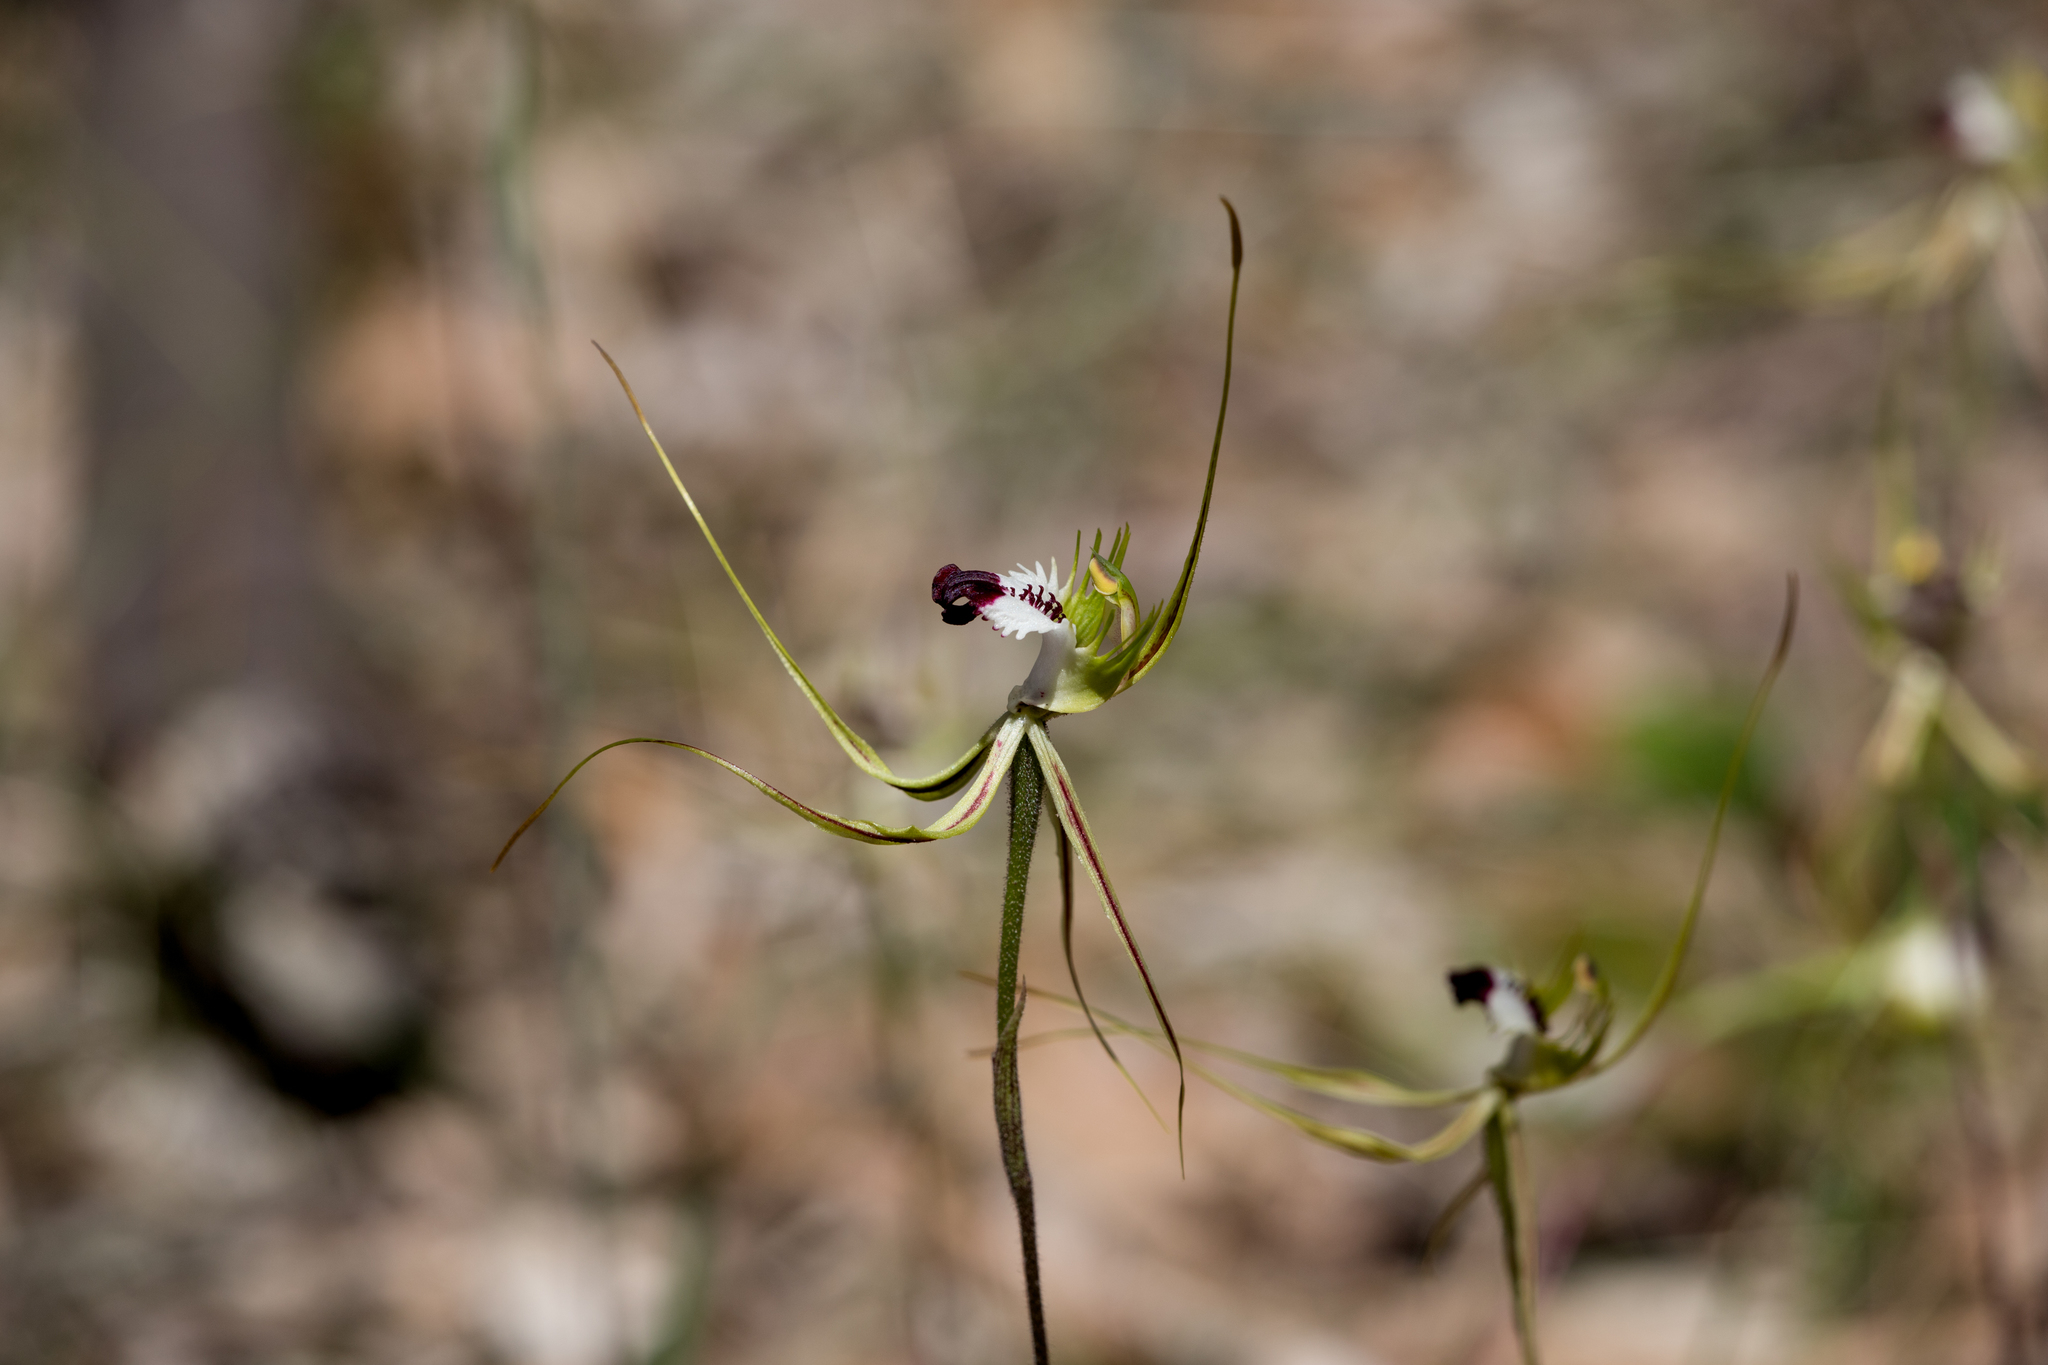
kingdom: Plantae
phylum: Tracheophyta
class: Liliopsida
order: Asparagales
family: Orchidaceae
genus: Caladenia
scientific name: Caladenia tentaculata
